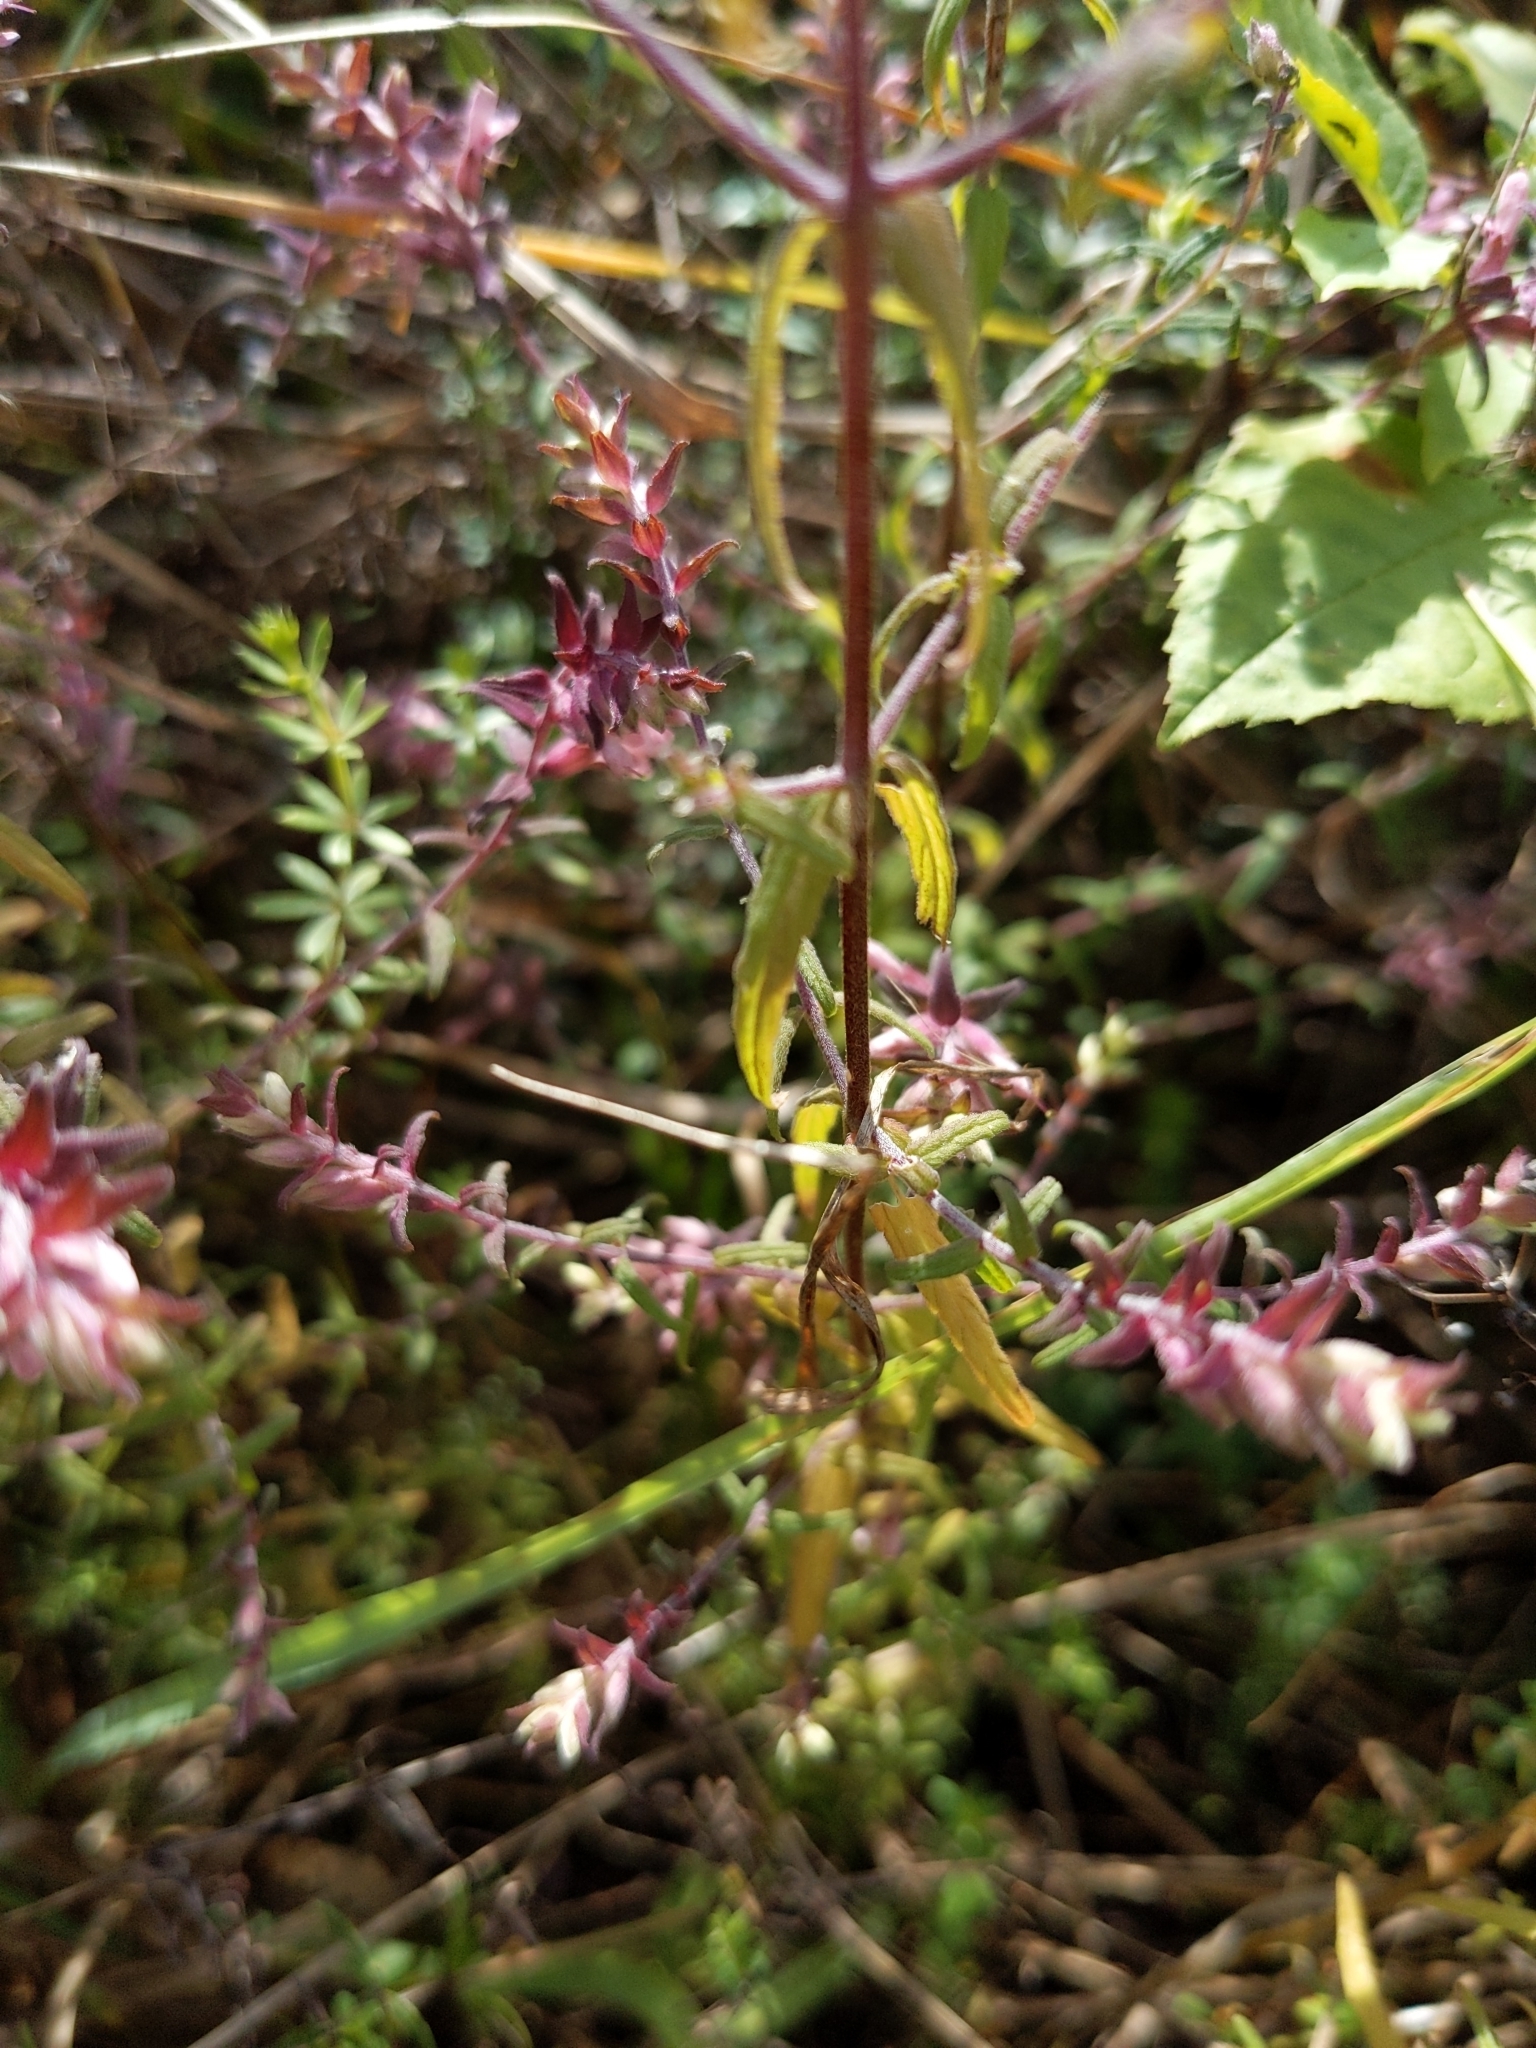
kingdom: Plantae
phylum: Tracheophyta
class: Magnoliopsida
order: Lamiales
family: Orobanchaceae
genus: Odontites
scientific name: Odontites vulgaris
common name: Broomrape
